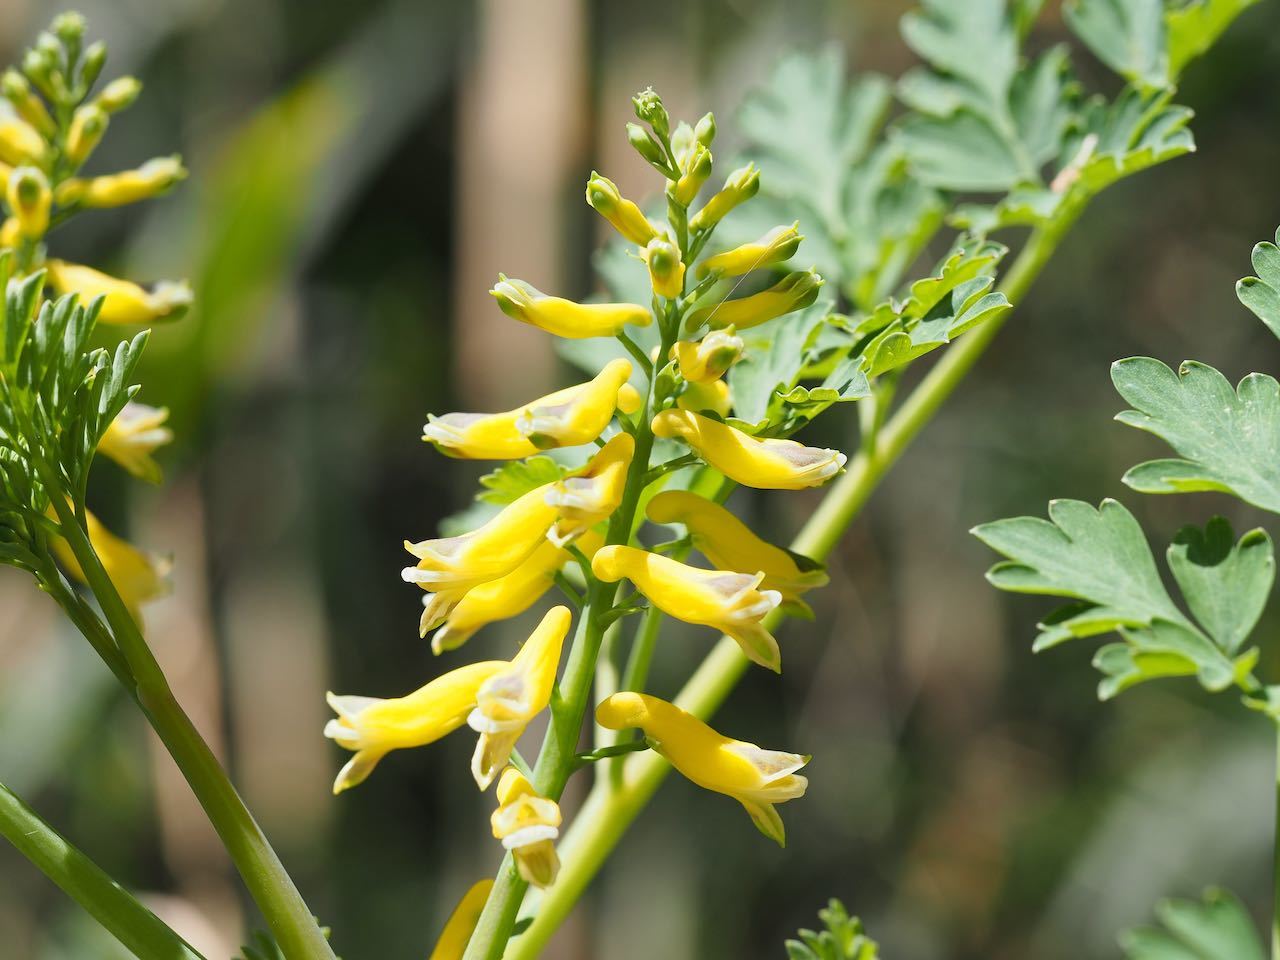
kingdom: Plantae
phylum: Tracheophyta
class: Magnoliopsida
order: Ranunculales
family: Papaveraceae
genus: Corydalis
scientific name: Corydalis platycarpa
